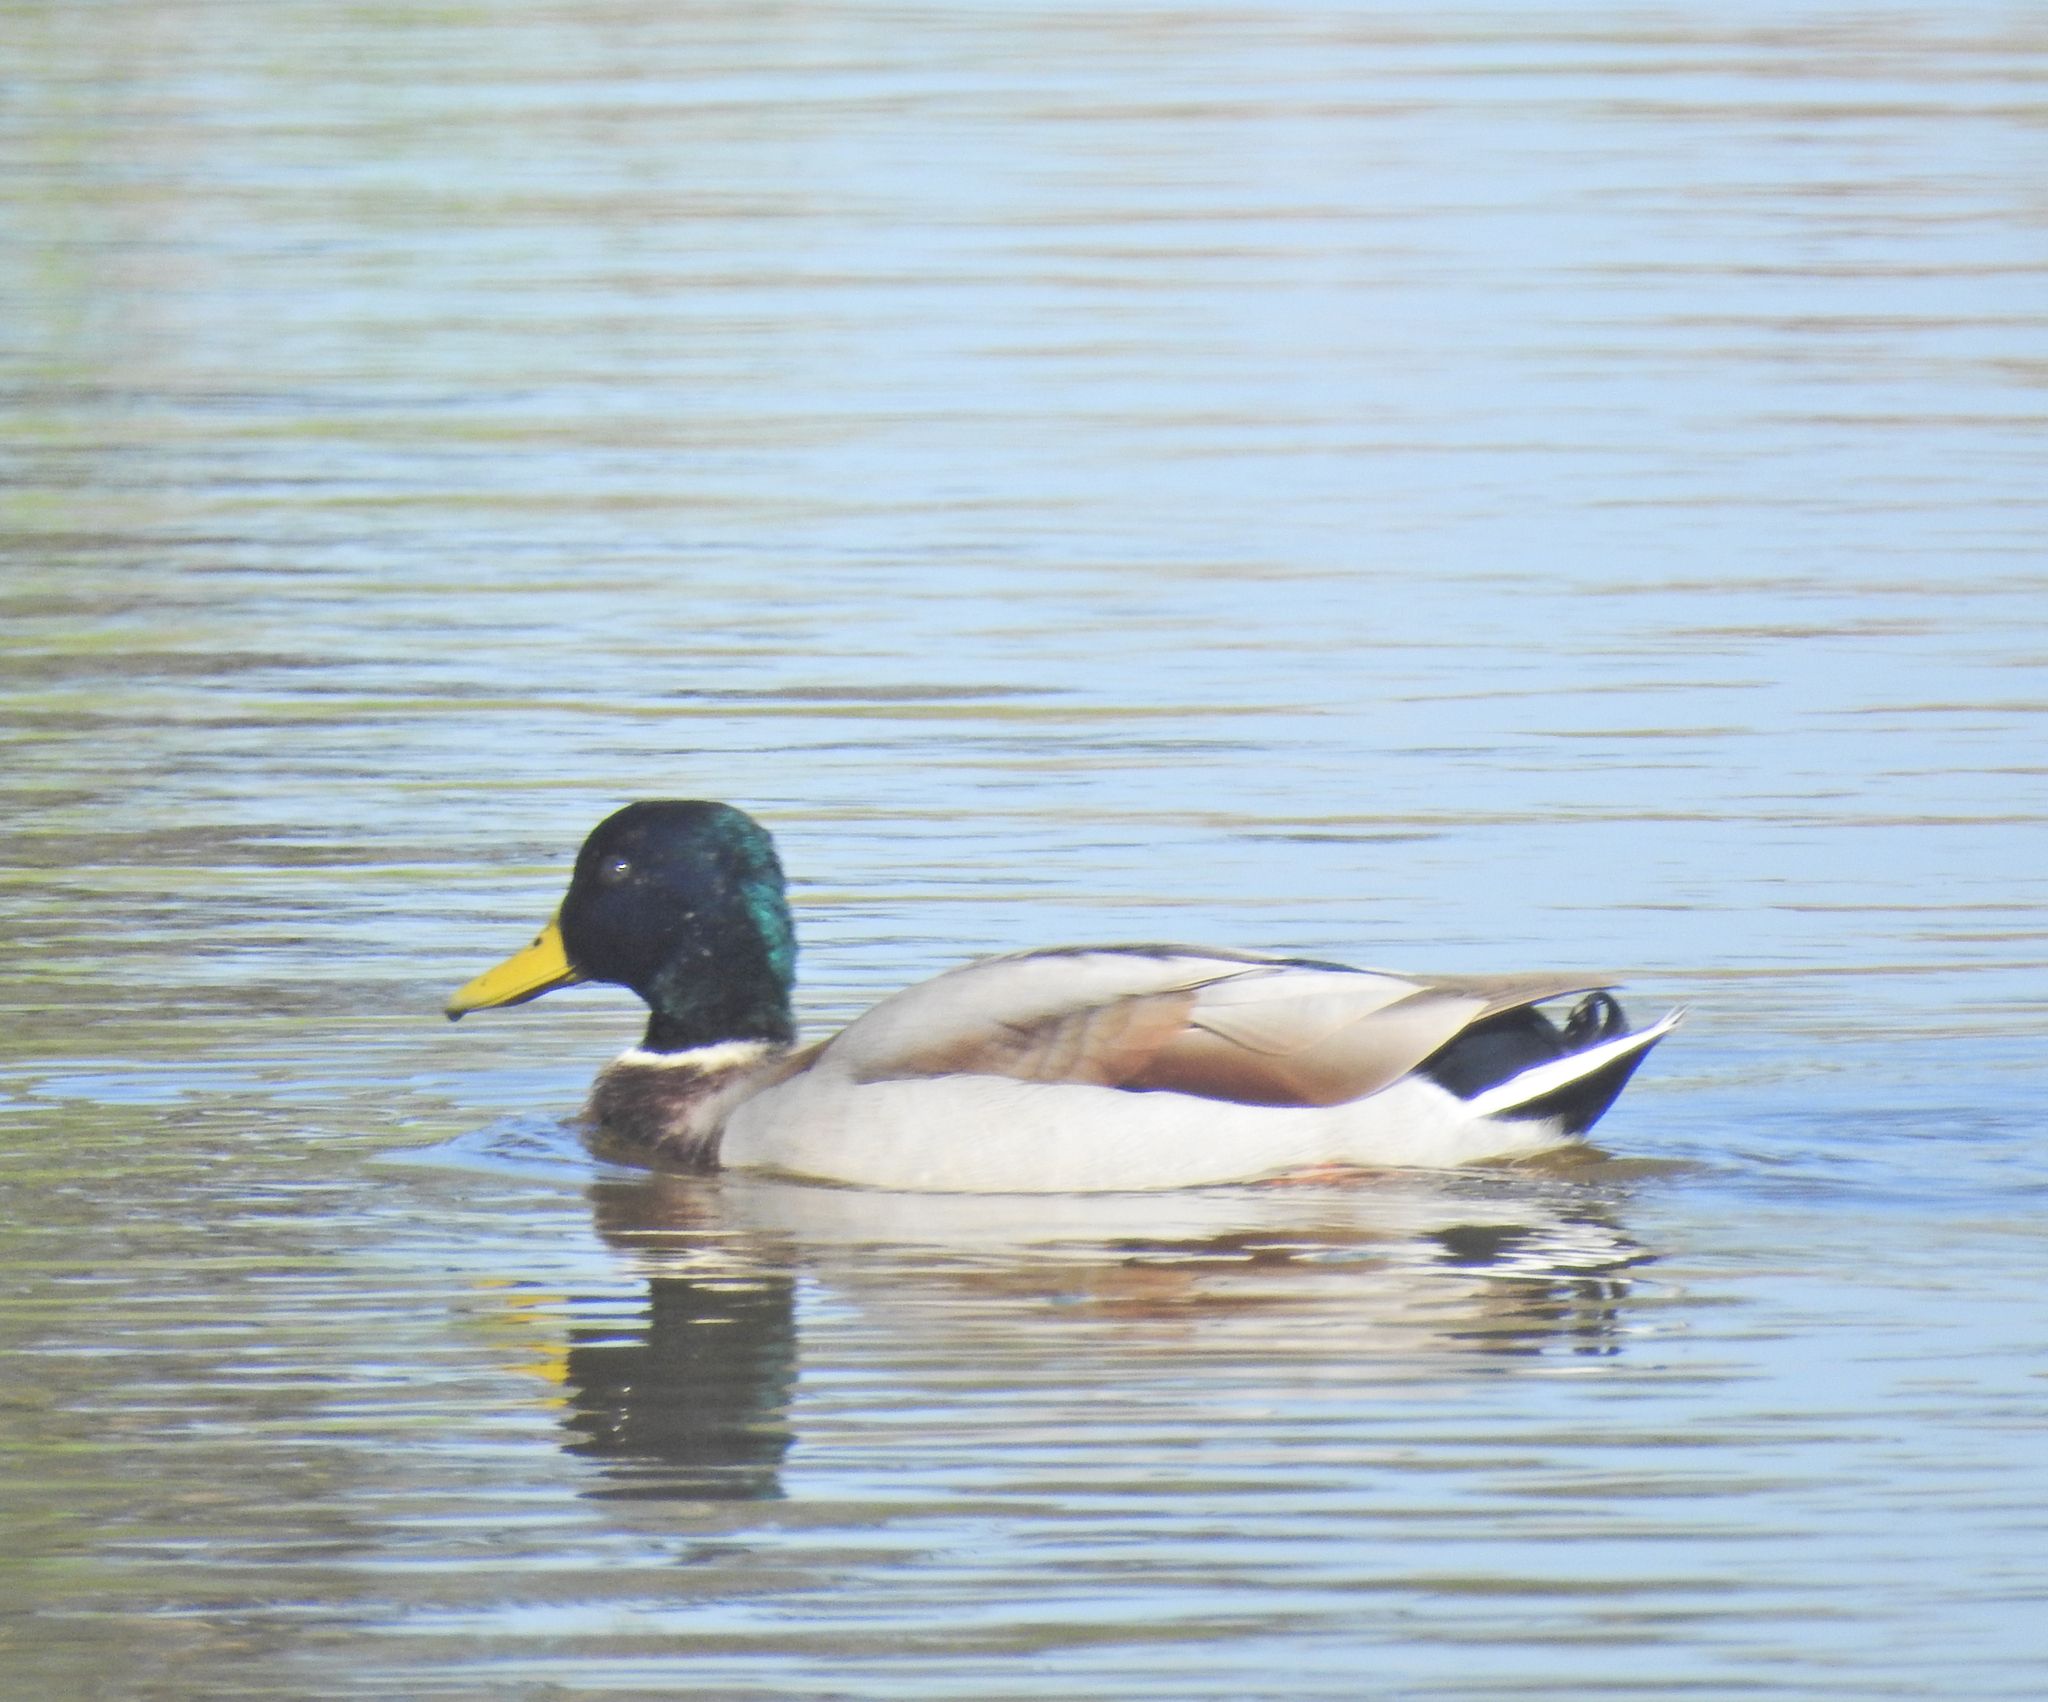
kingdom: Animalia
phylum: Chordata
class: Aves
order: Anseriformes
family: Anatidae
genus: Anas
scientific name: Anas platyrhynchos
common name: Mallard
